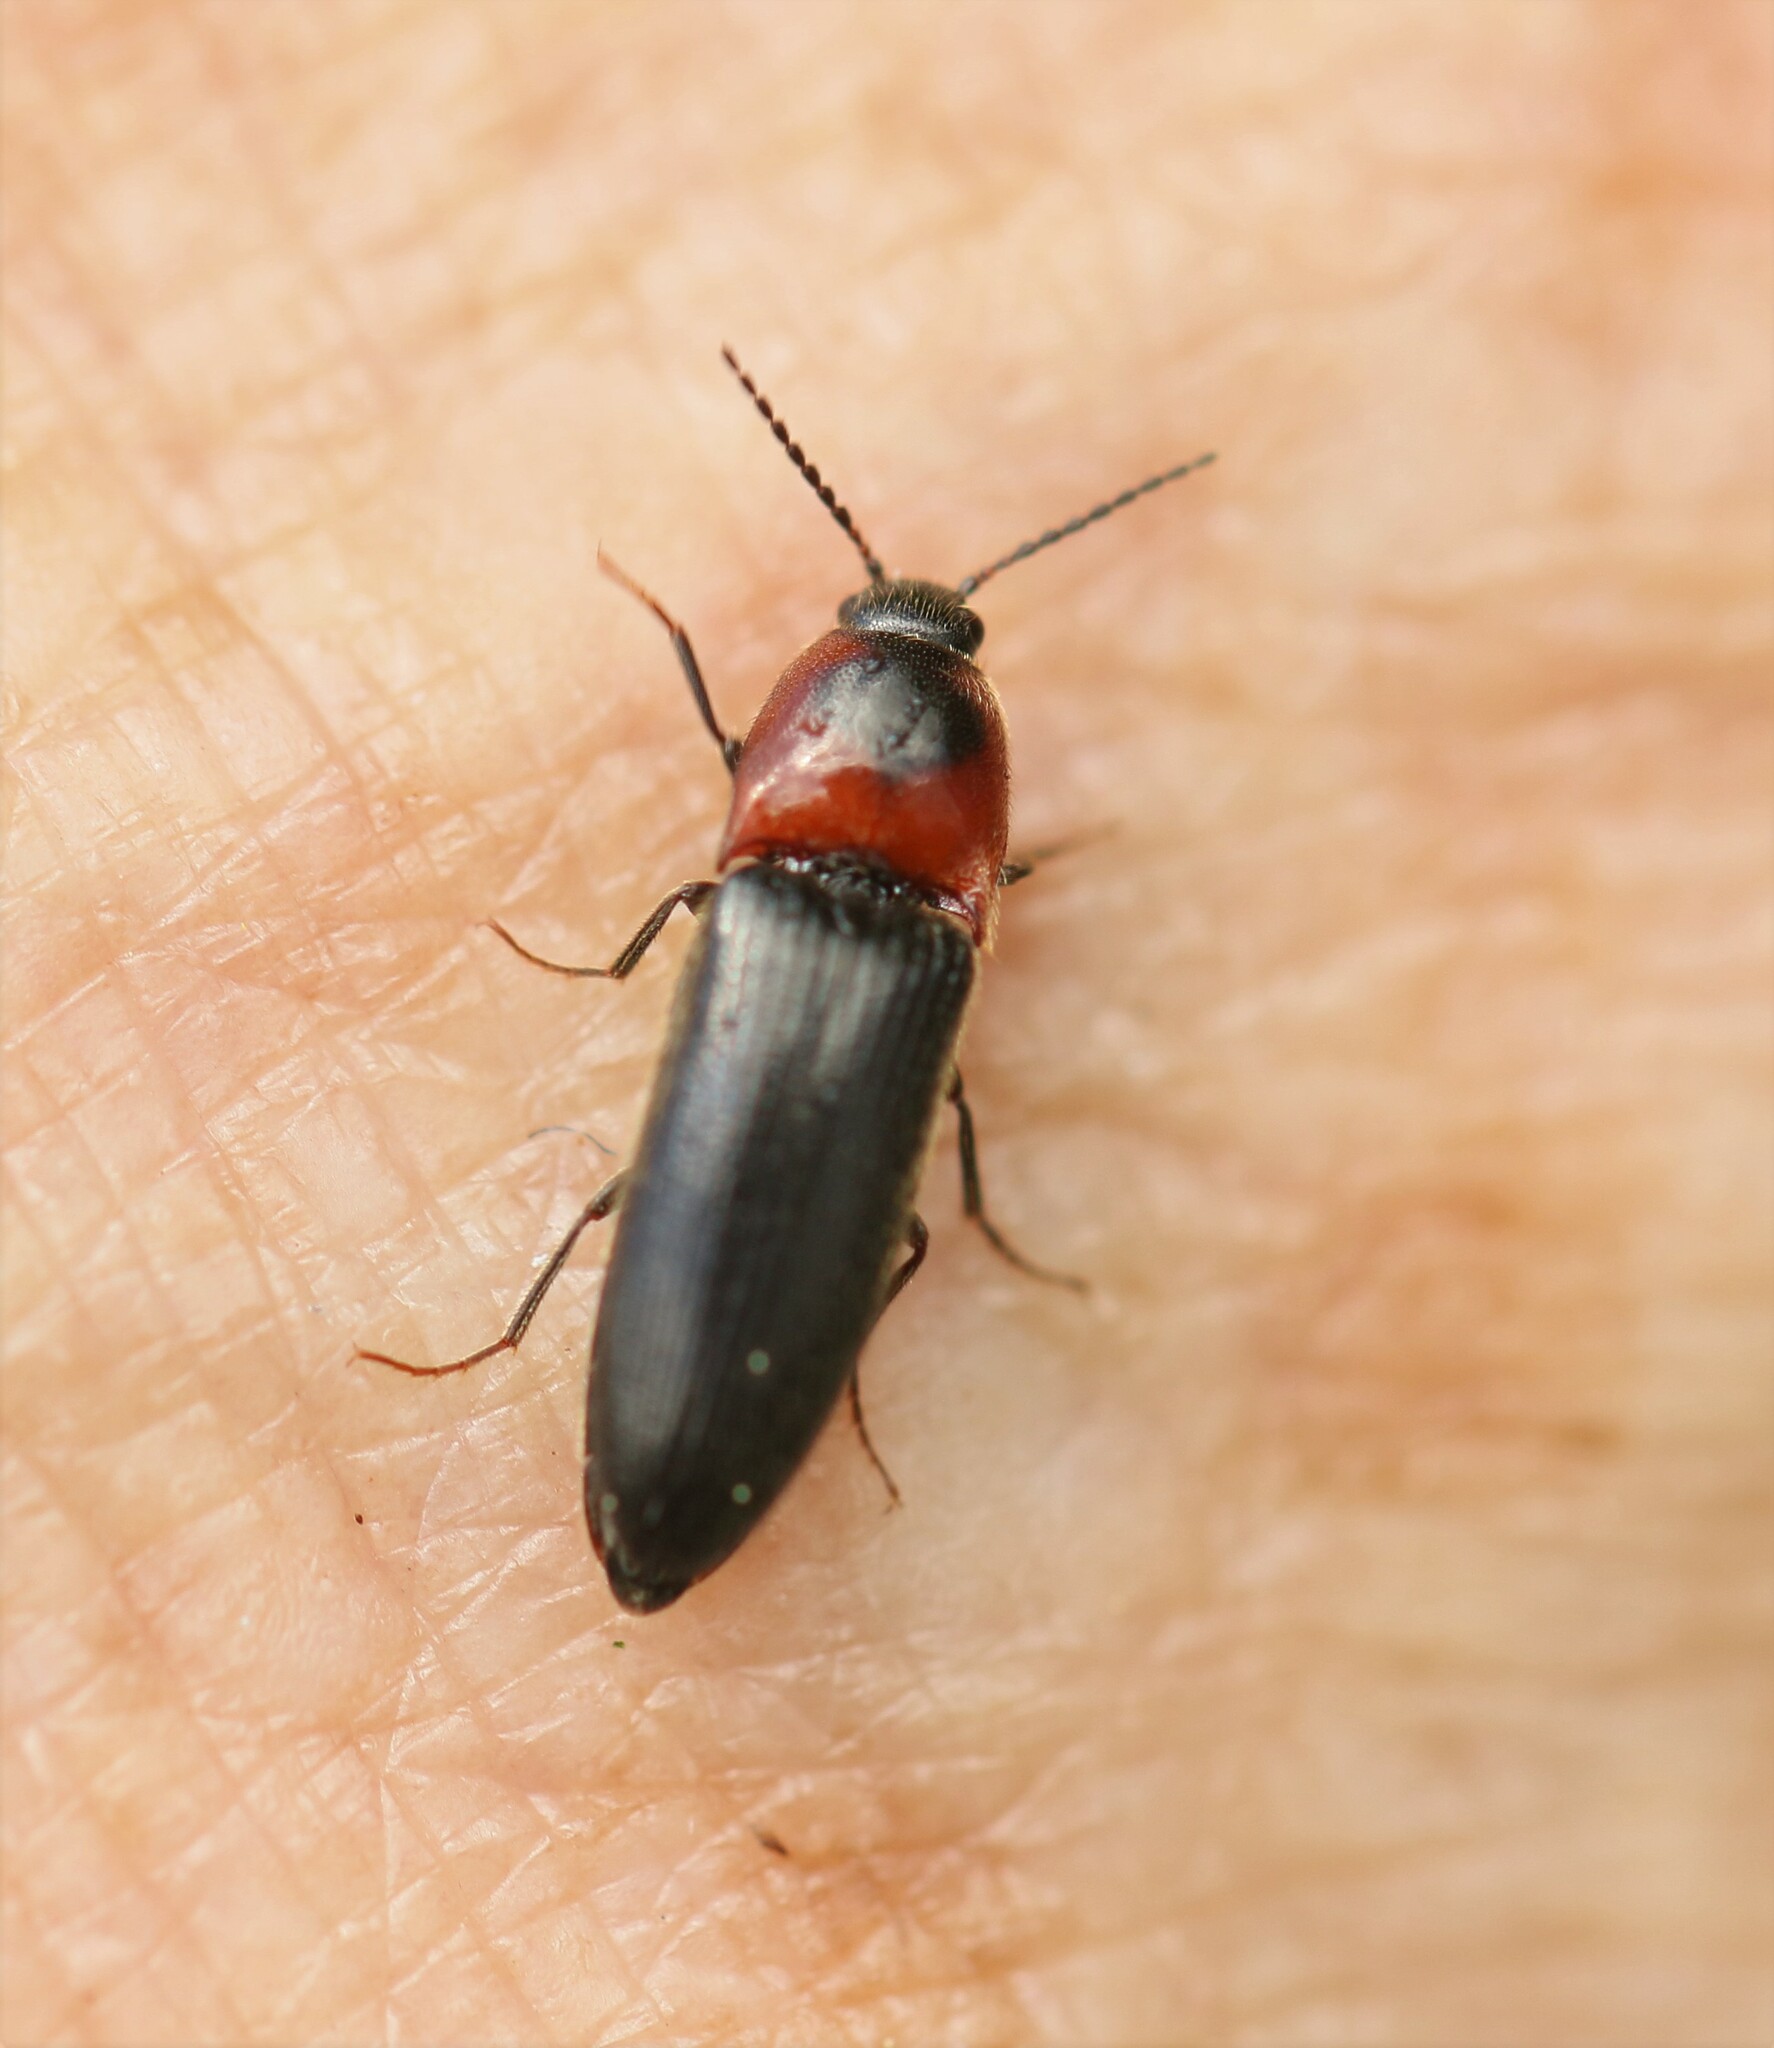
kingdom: Animalia
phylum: Arthropoda
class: Insecta
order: Coleoptera
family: Elateridae
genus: Ampedus
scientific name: Ampedus rubricus
